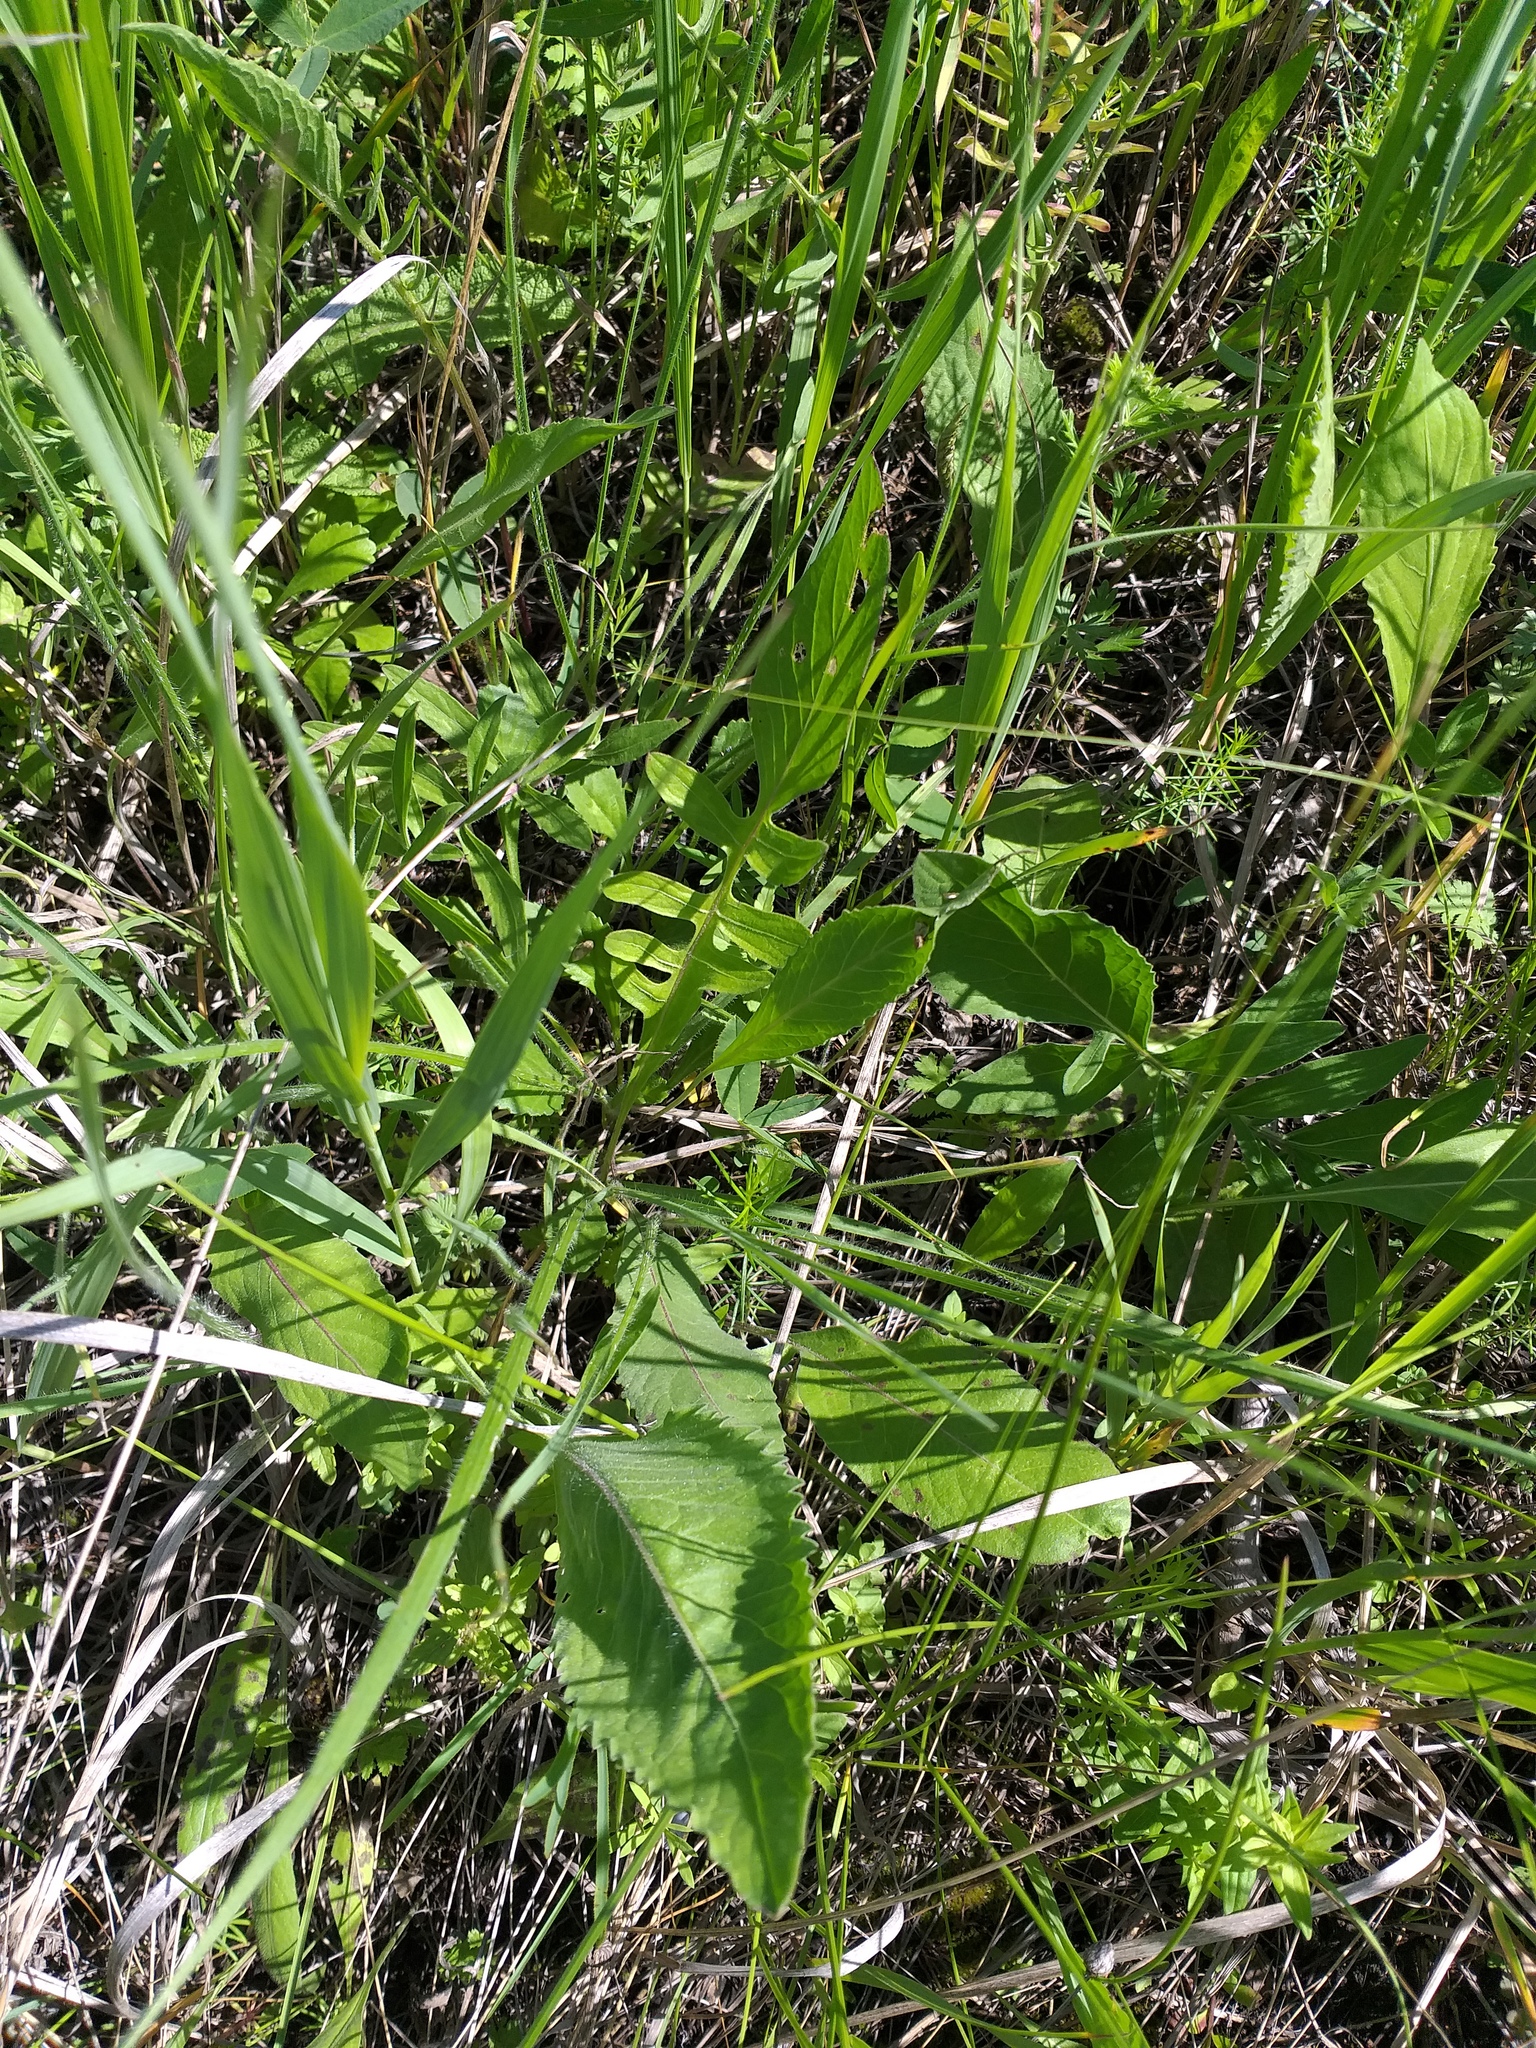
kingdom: Plantae
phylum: Tracheophyta
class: Magnoliopsida
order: Asterales
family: Asteraceae
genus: Centaurea
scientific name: Centaurea apiculata
